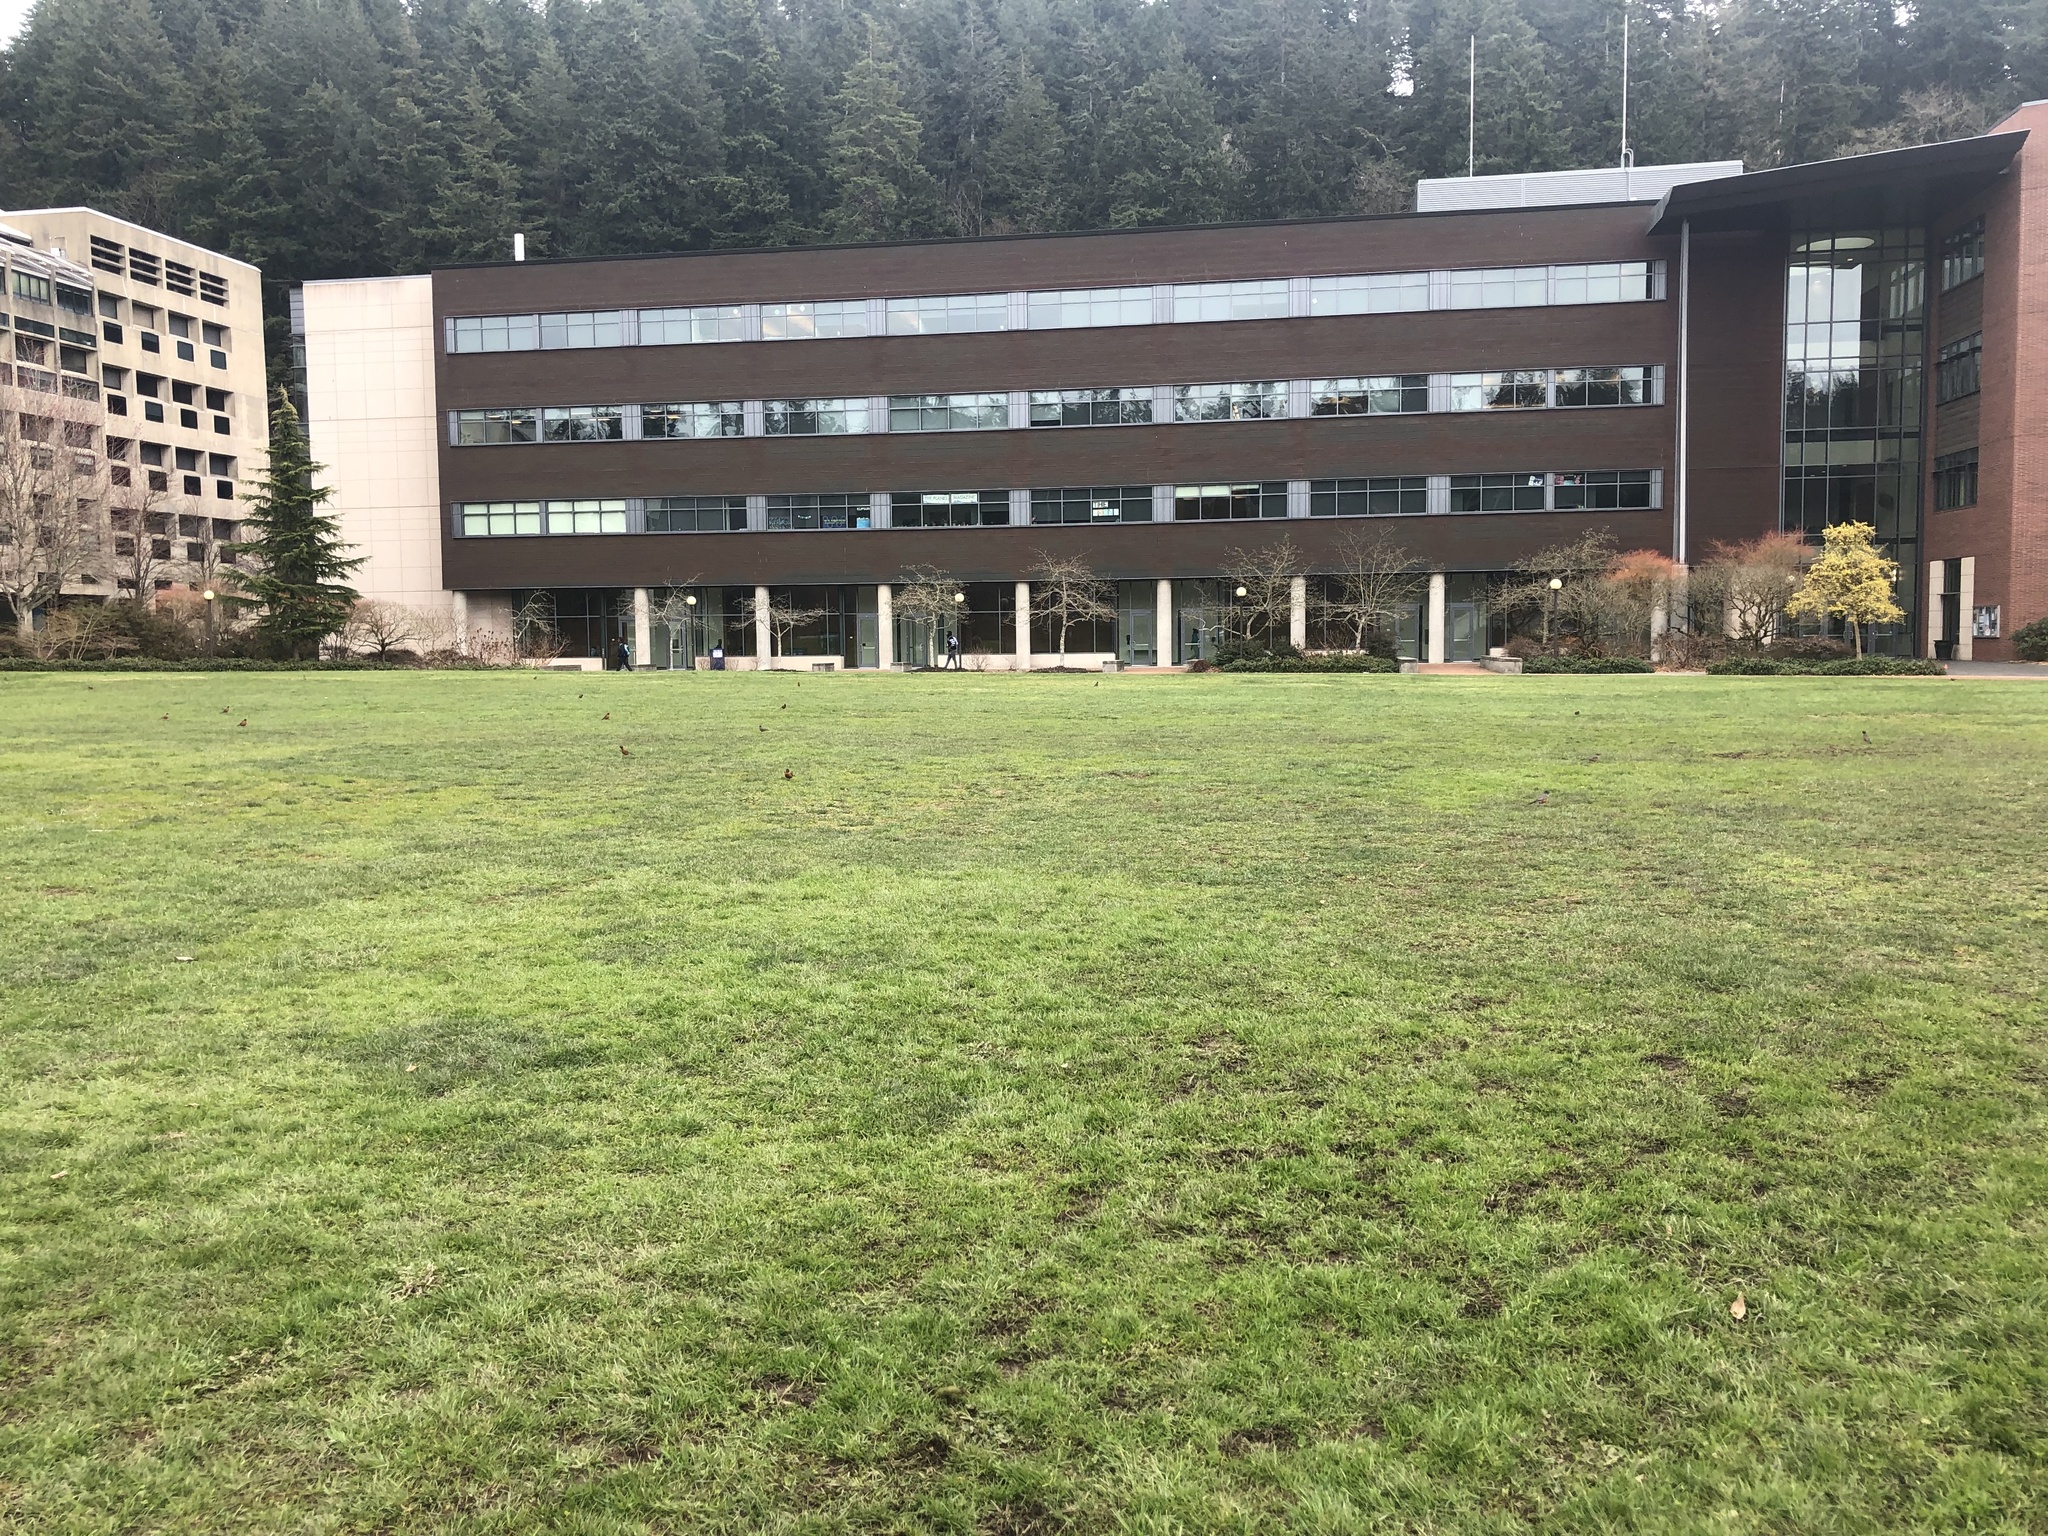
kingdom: Animalia
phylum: Chordata
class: Aves
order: Passeriformes
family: Turdidae
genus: Turdus
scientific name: Turdus migratorius
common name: American robin
